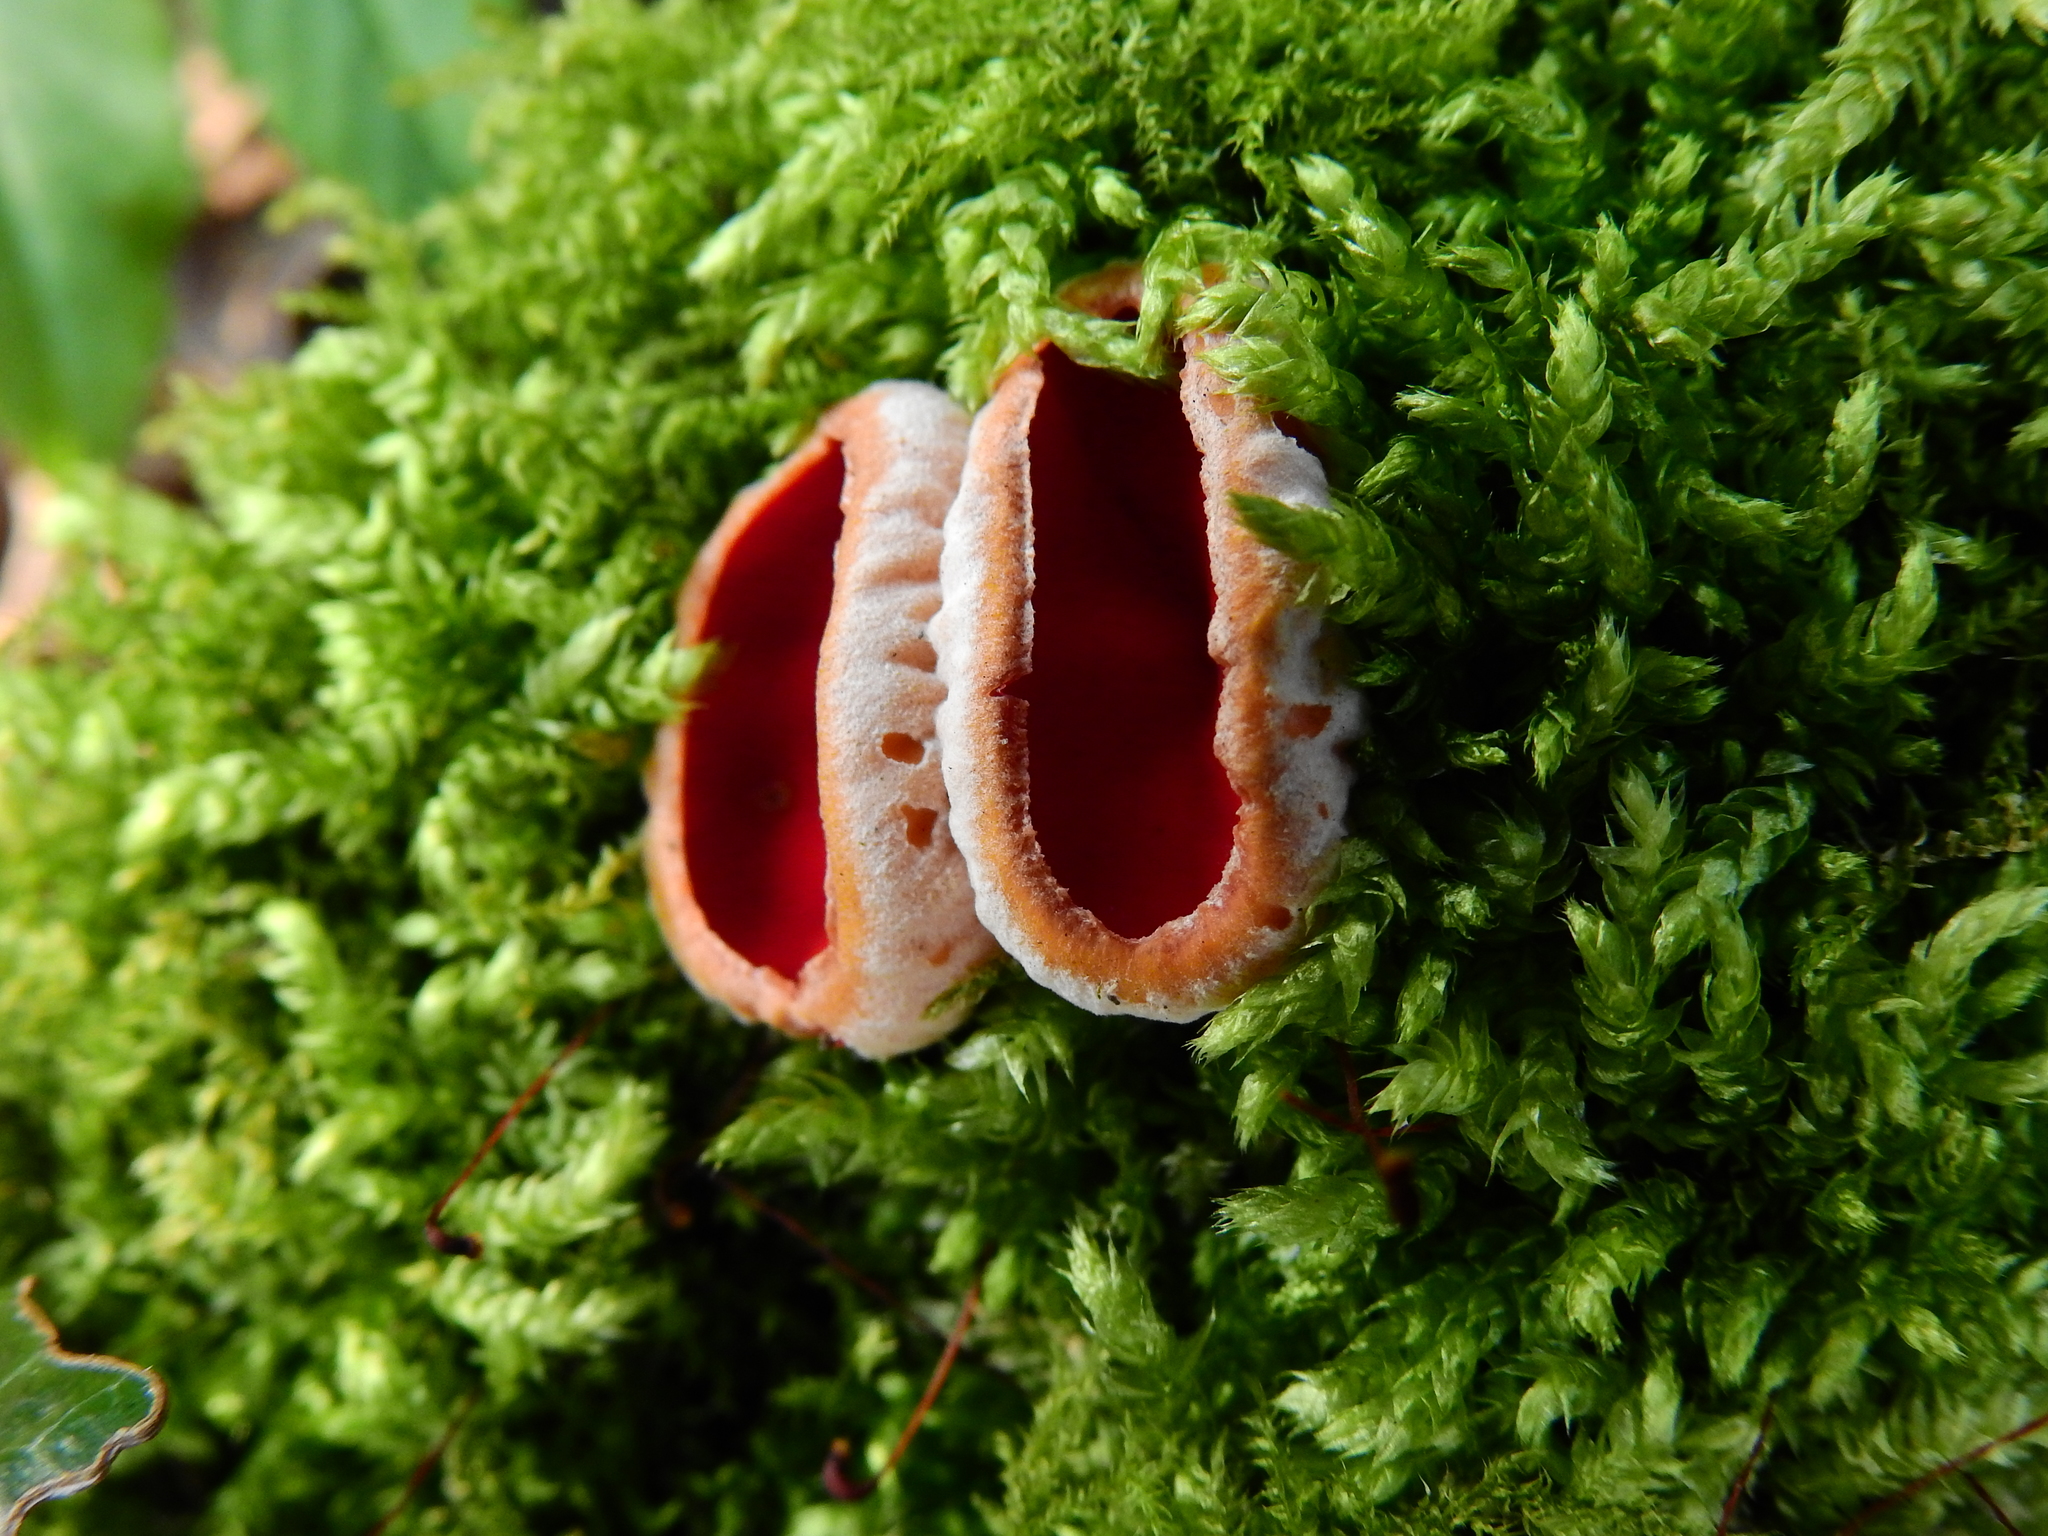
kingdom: Fungi
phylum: Ascomycota
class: Pezizomycetes
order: Pezizales
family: Sarcoscyphaceae
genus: Sarcoscypha
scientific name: Sarcoscypha
